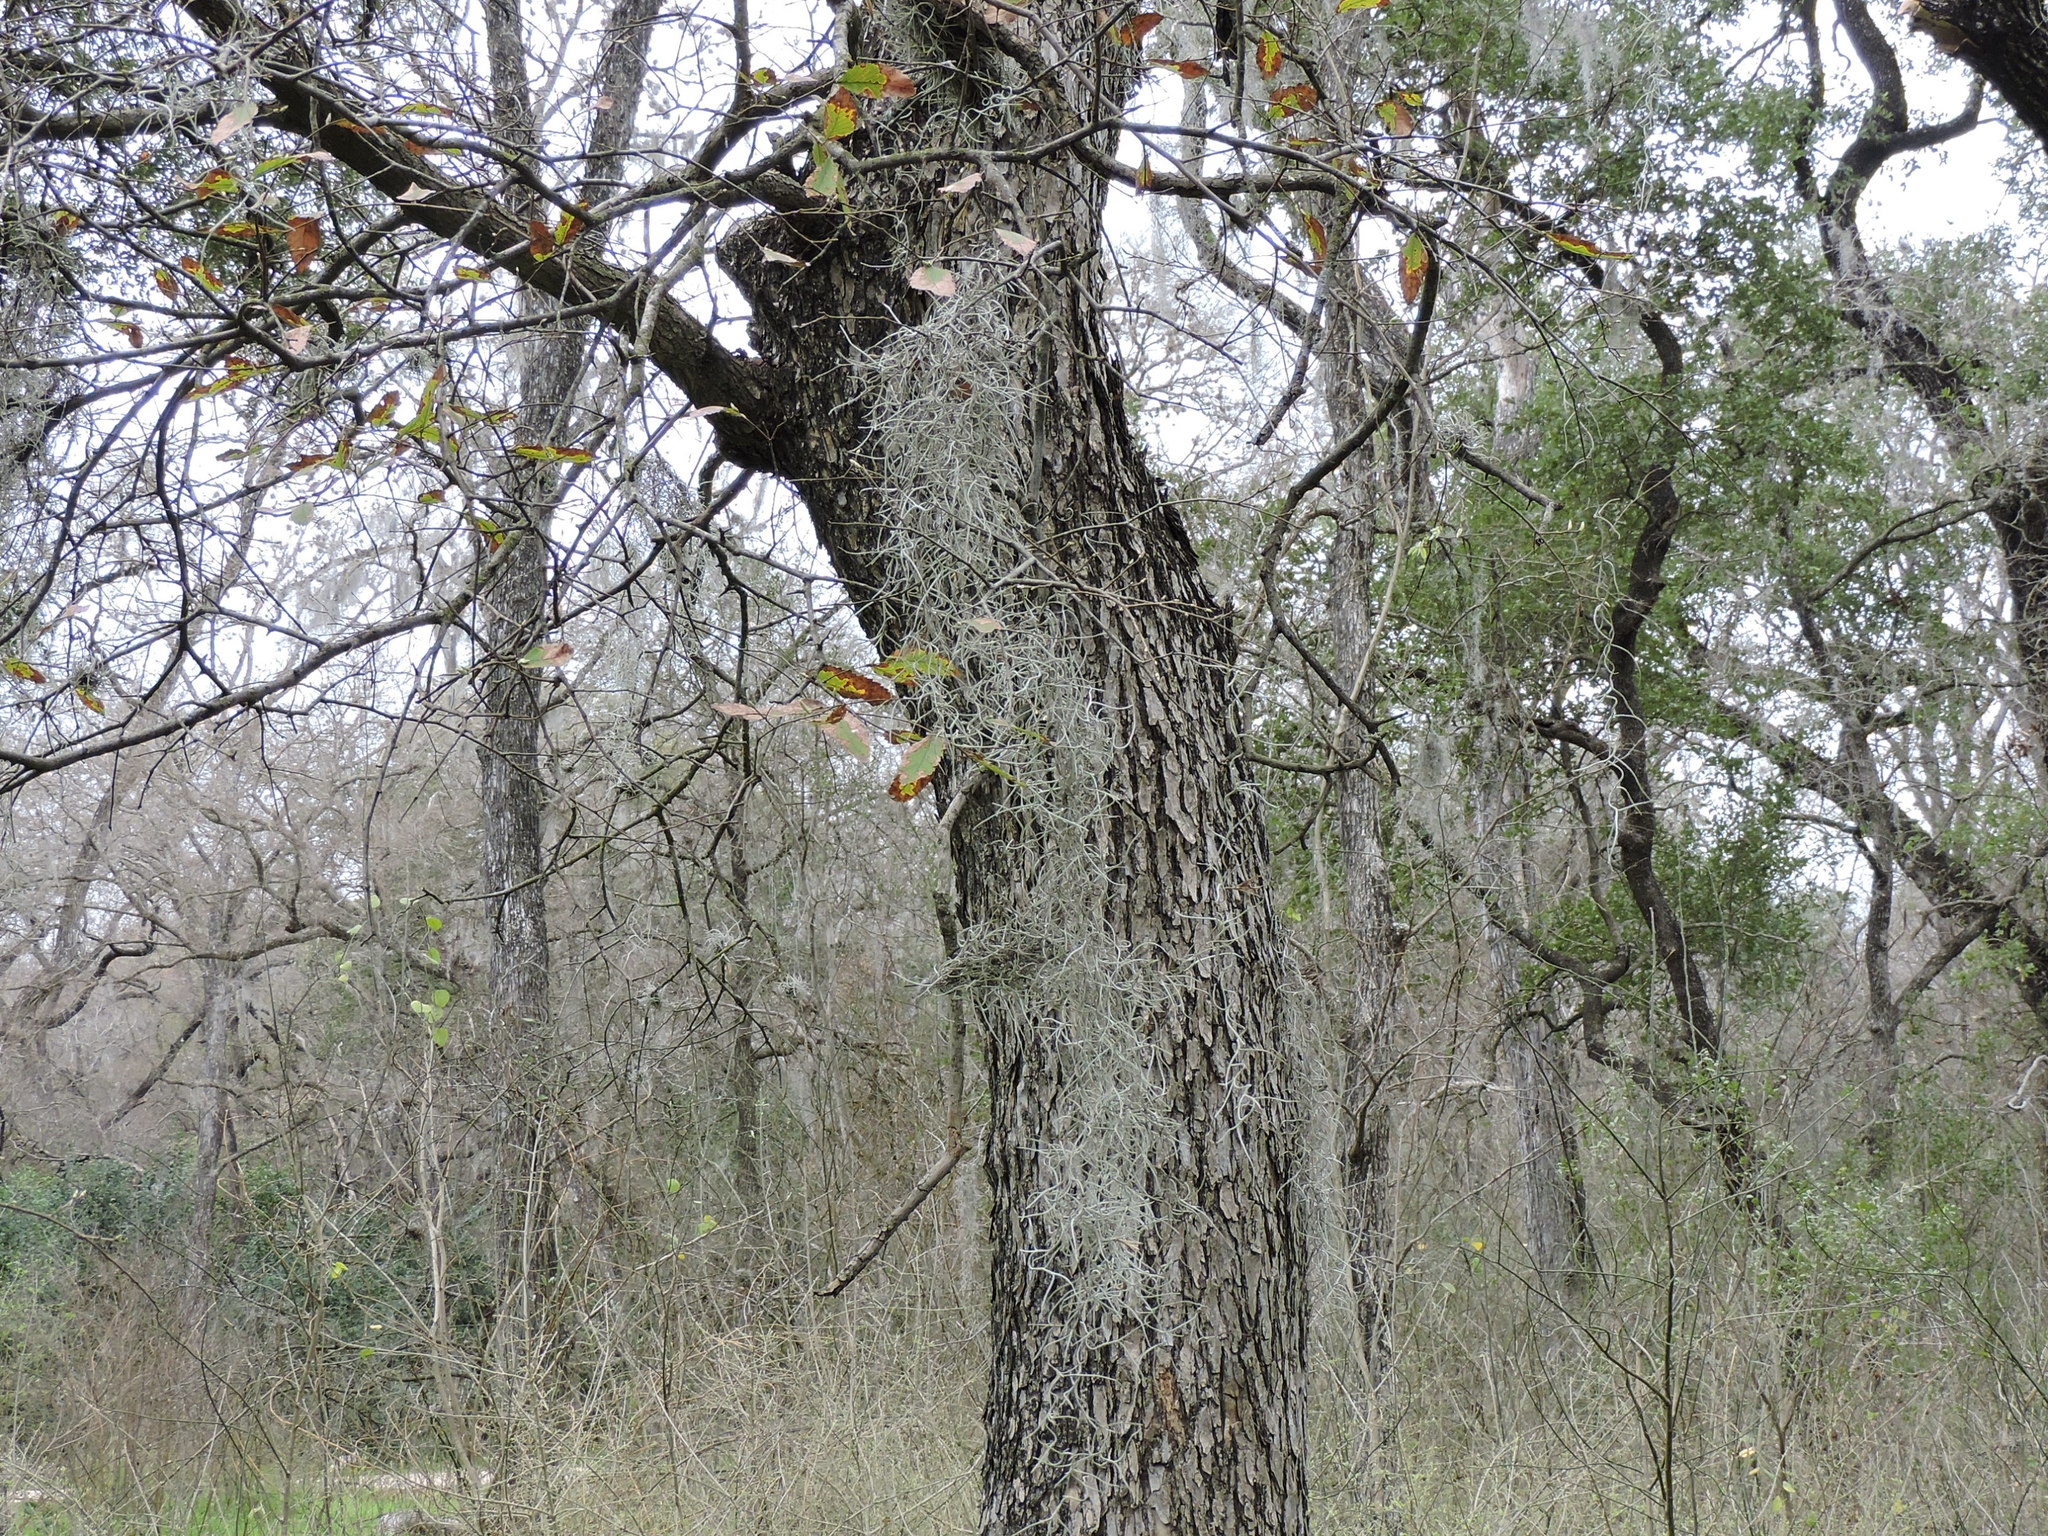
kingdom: Plantae
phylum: Tracheophyta
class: Liliopsida
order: Poales
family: Bromeliaceae
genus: Tillandsia
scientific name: Tillandsia usneoides
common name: Spanish moss
